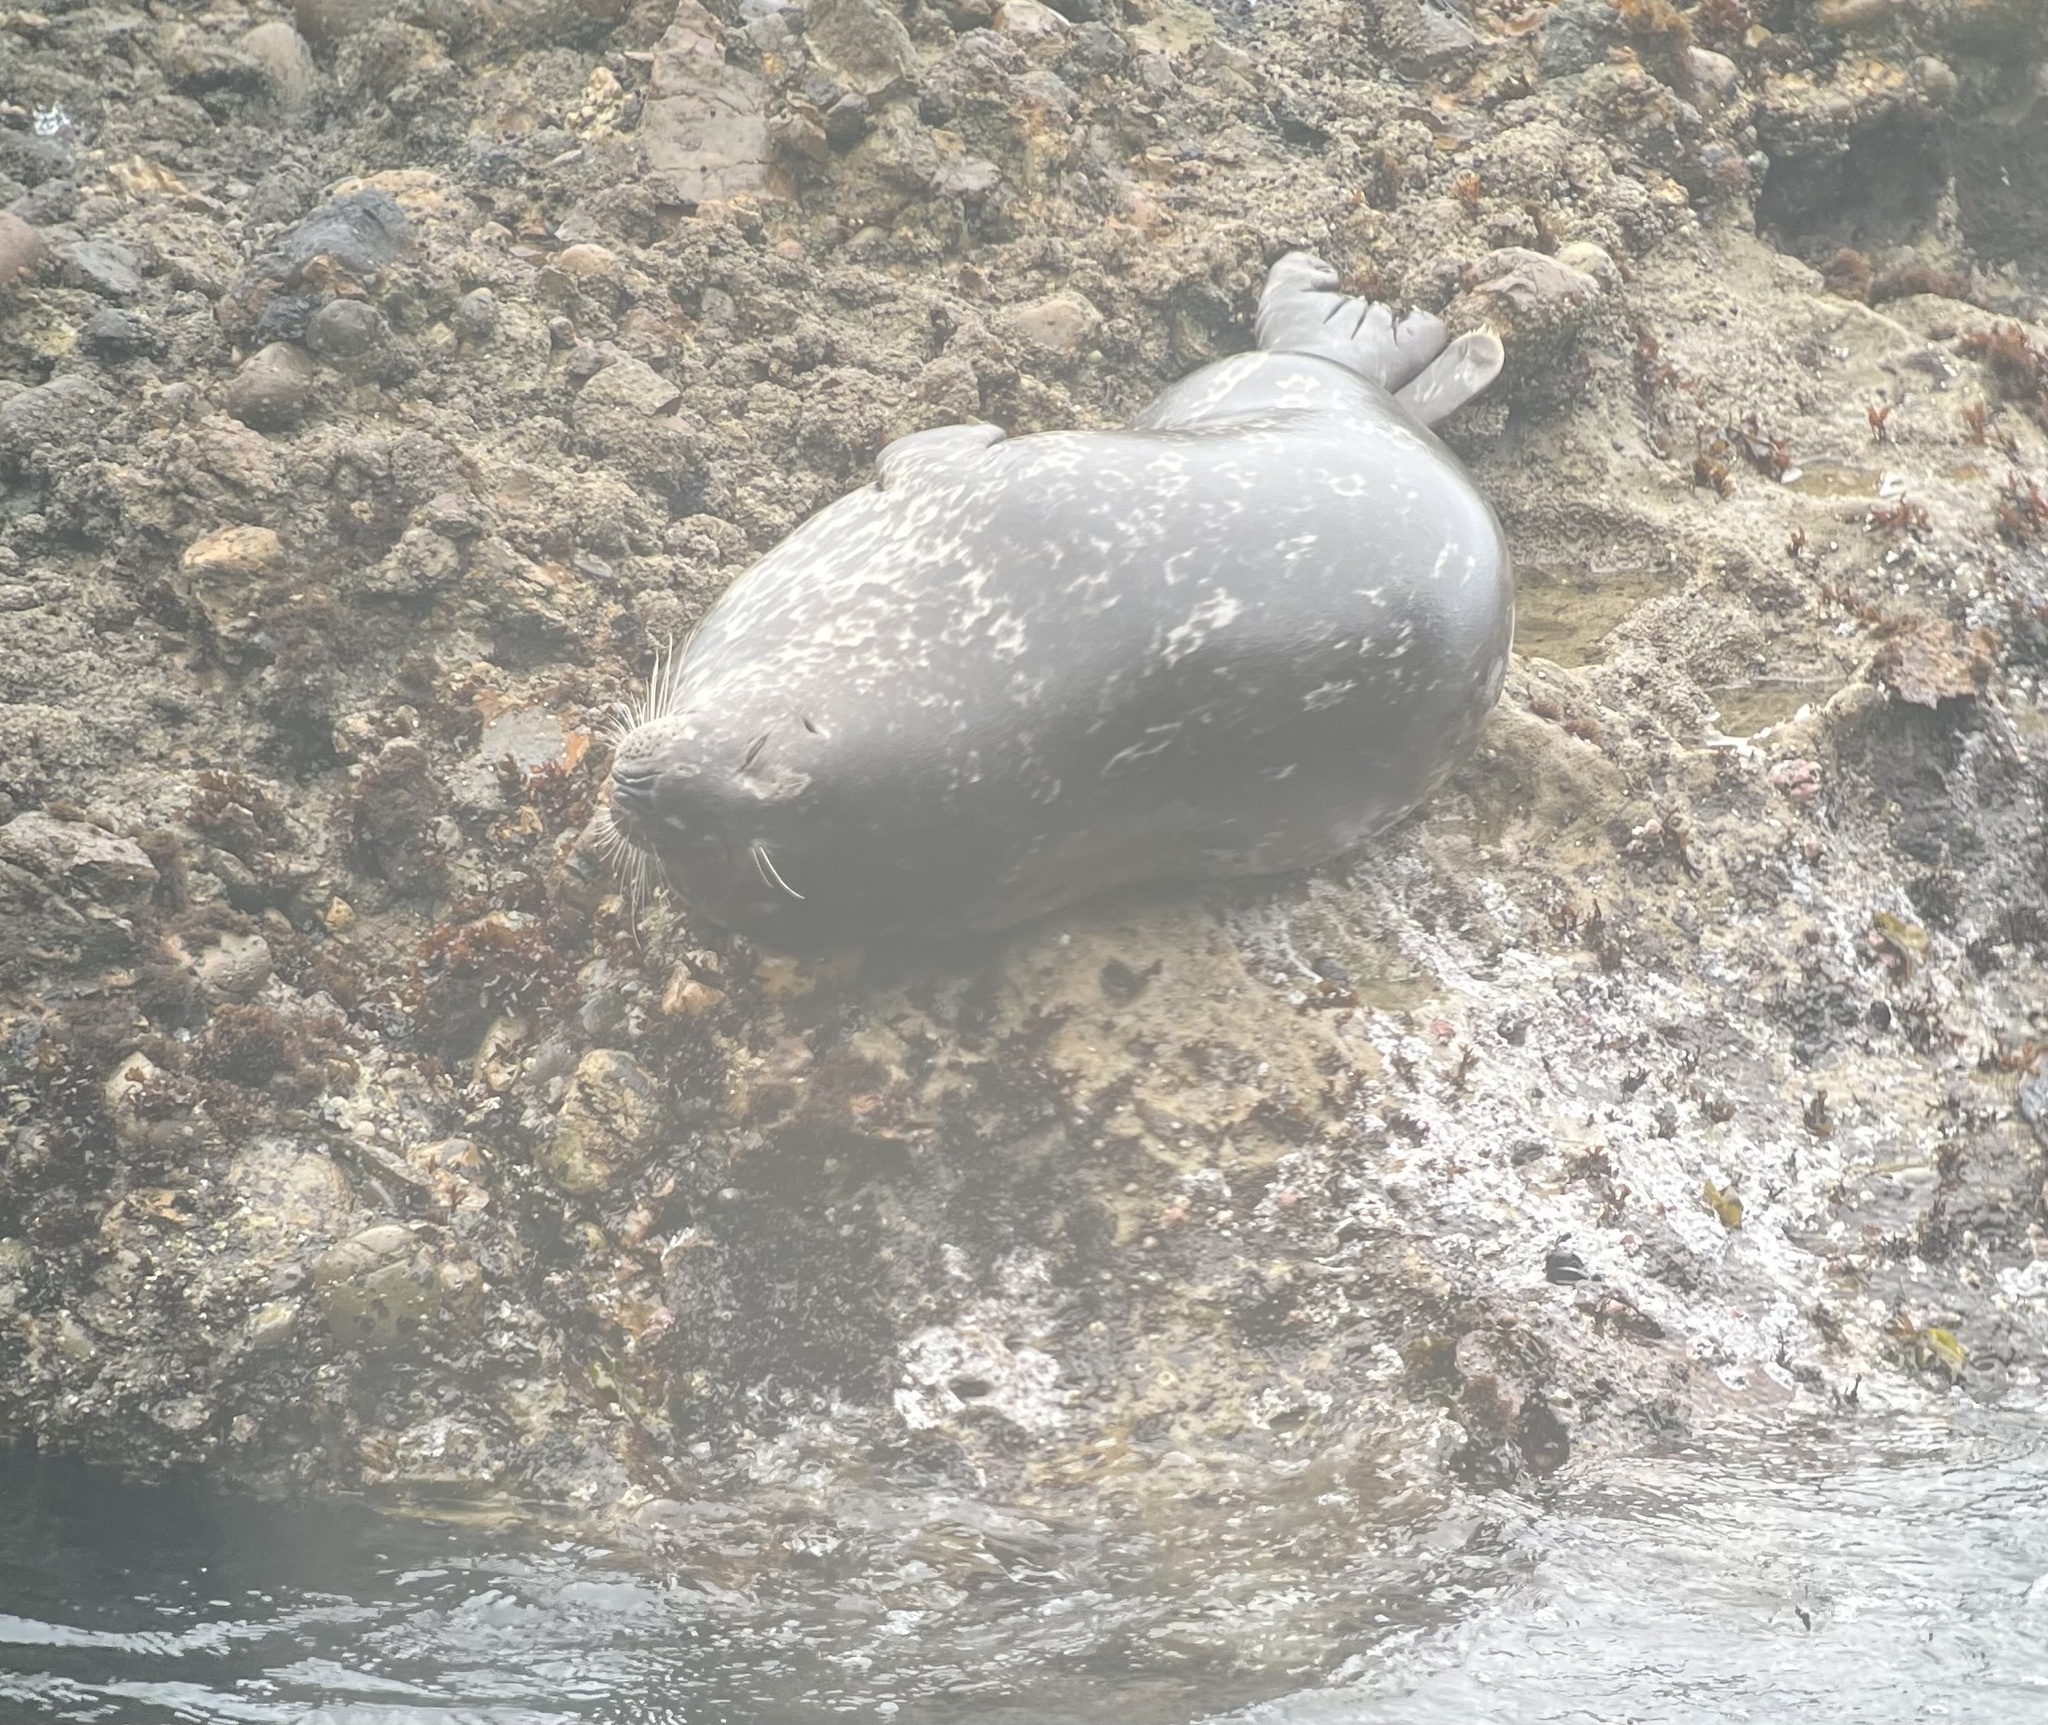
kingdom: Animalia
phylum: Chordata
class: Mammalia
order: Carnivora
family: Phocidae
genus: Phoca
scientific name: Phoca vitulina
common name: Harbor seal
